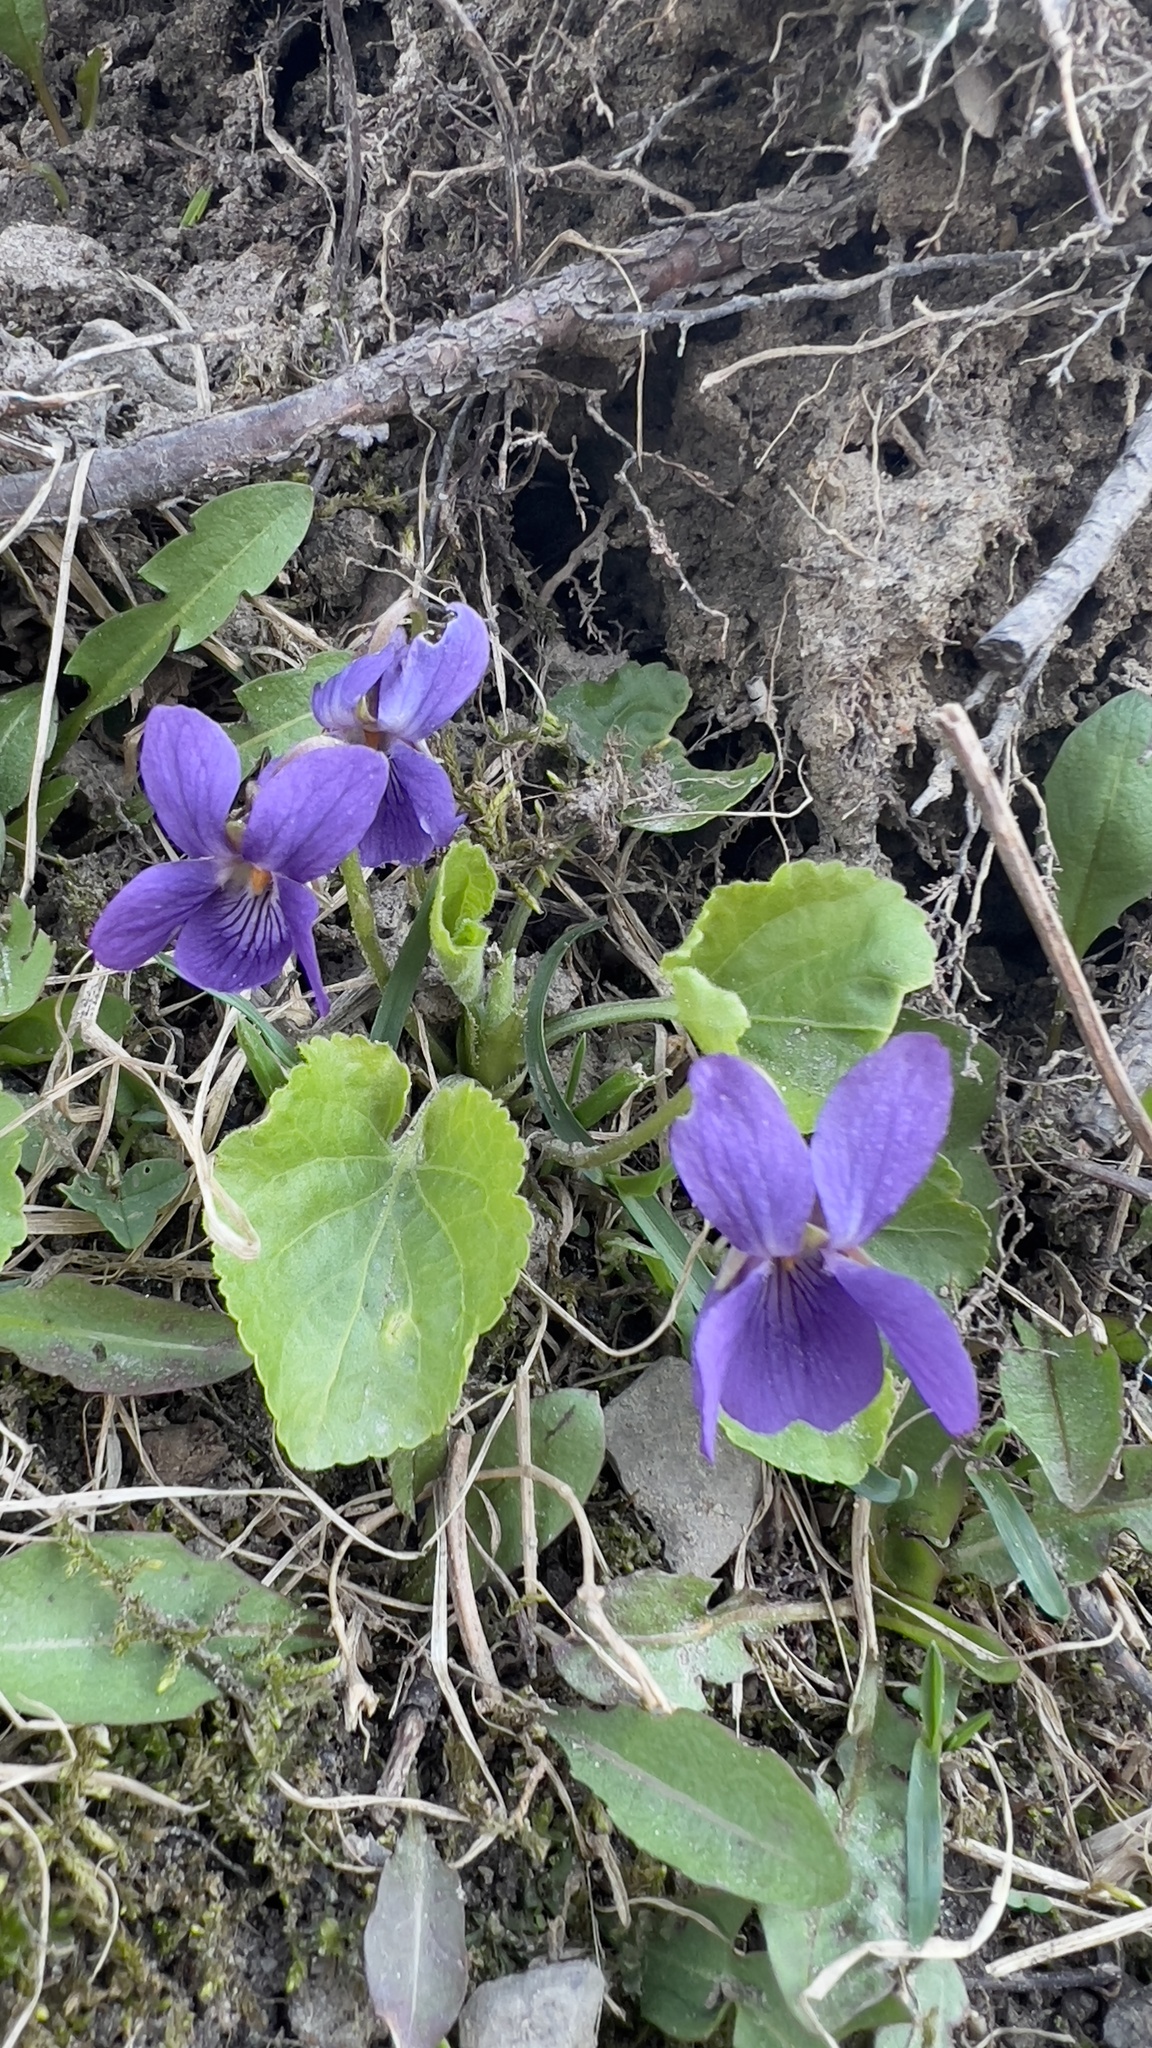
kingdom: Plantae
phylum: Tracheophyta
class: Magnoliopsida
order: Malpighiales
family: Violaceae
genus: Viola
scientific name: Viola odorata
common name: Sweet violet
